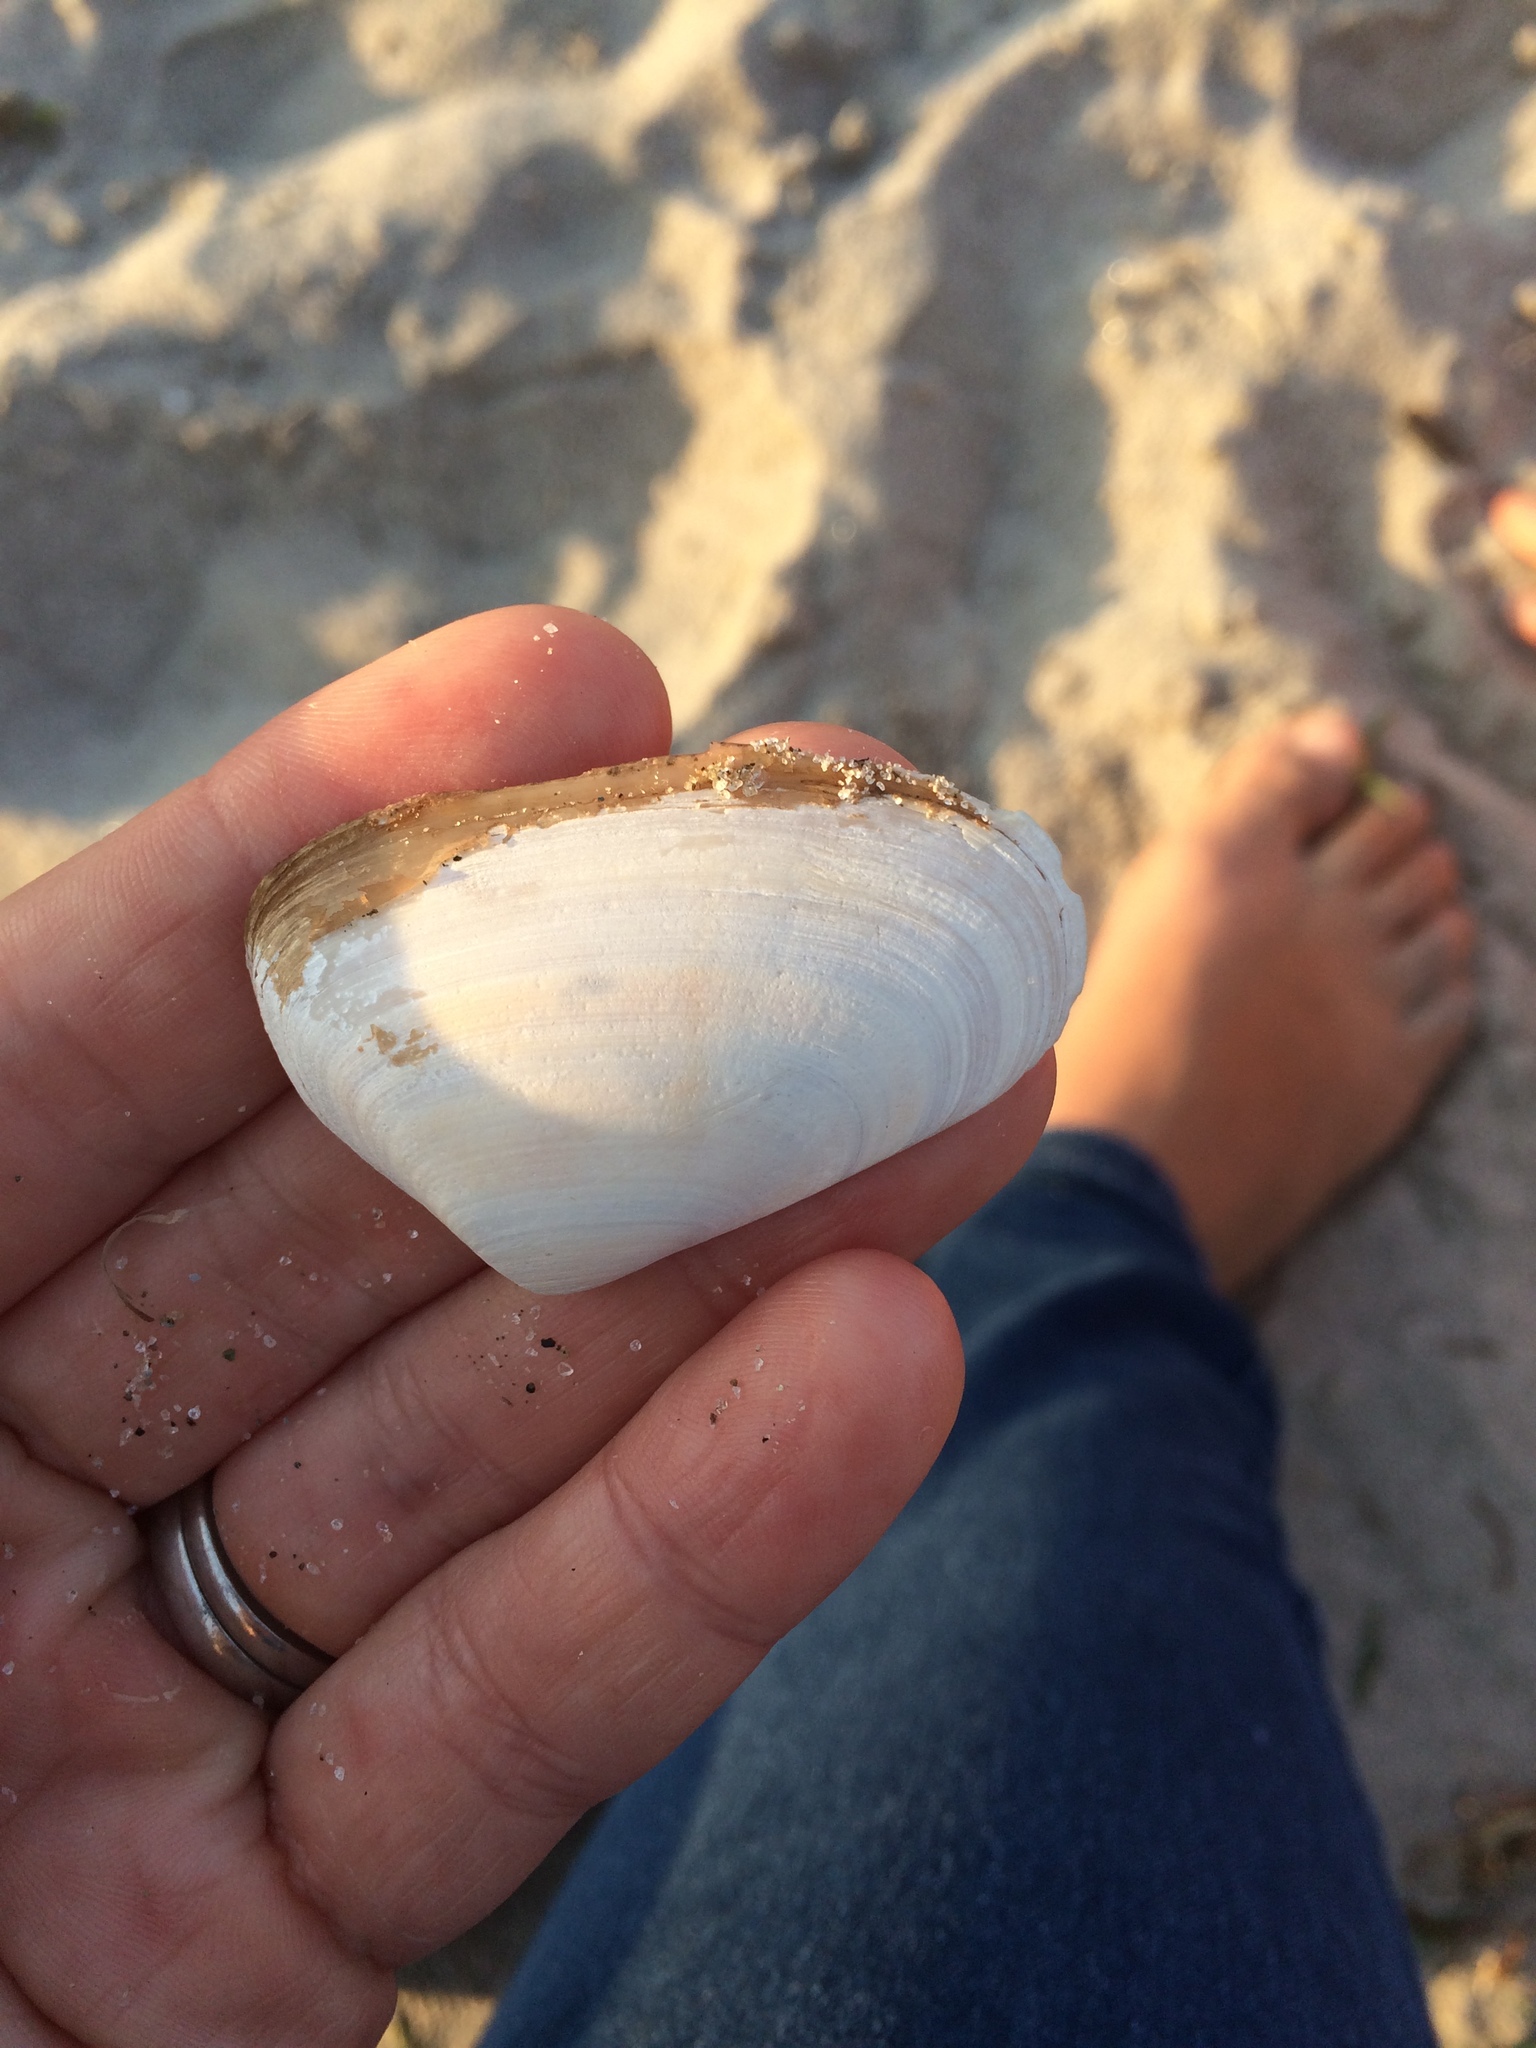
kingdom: Animalia
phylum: Mollusca
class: Bivalvia
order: Venerida
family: Mesodesmatidae
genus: Paphies
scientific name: Paphies subtriangulata
